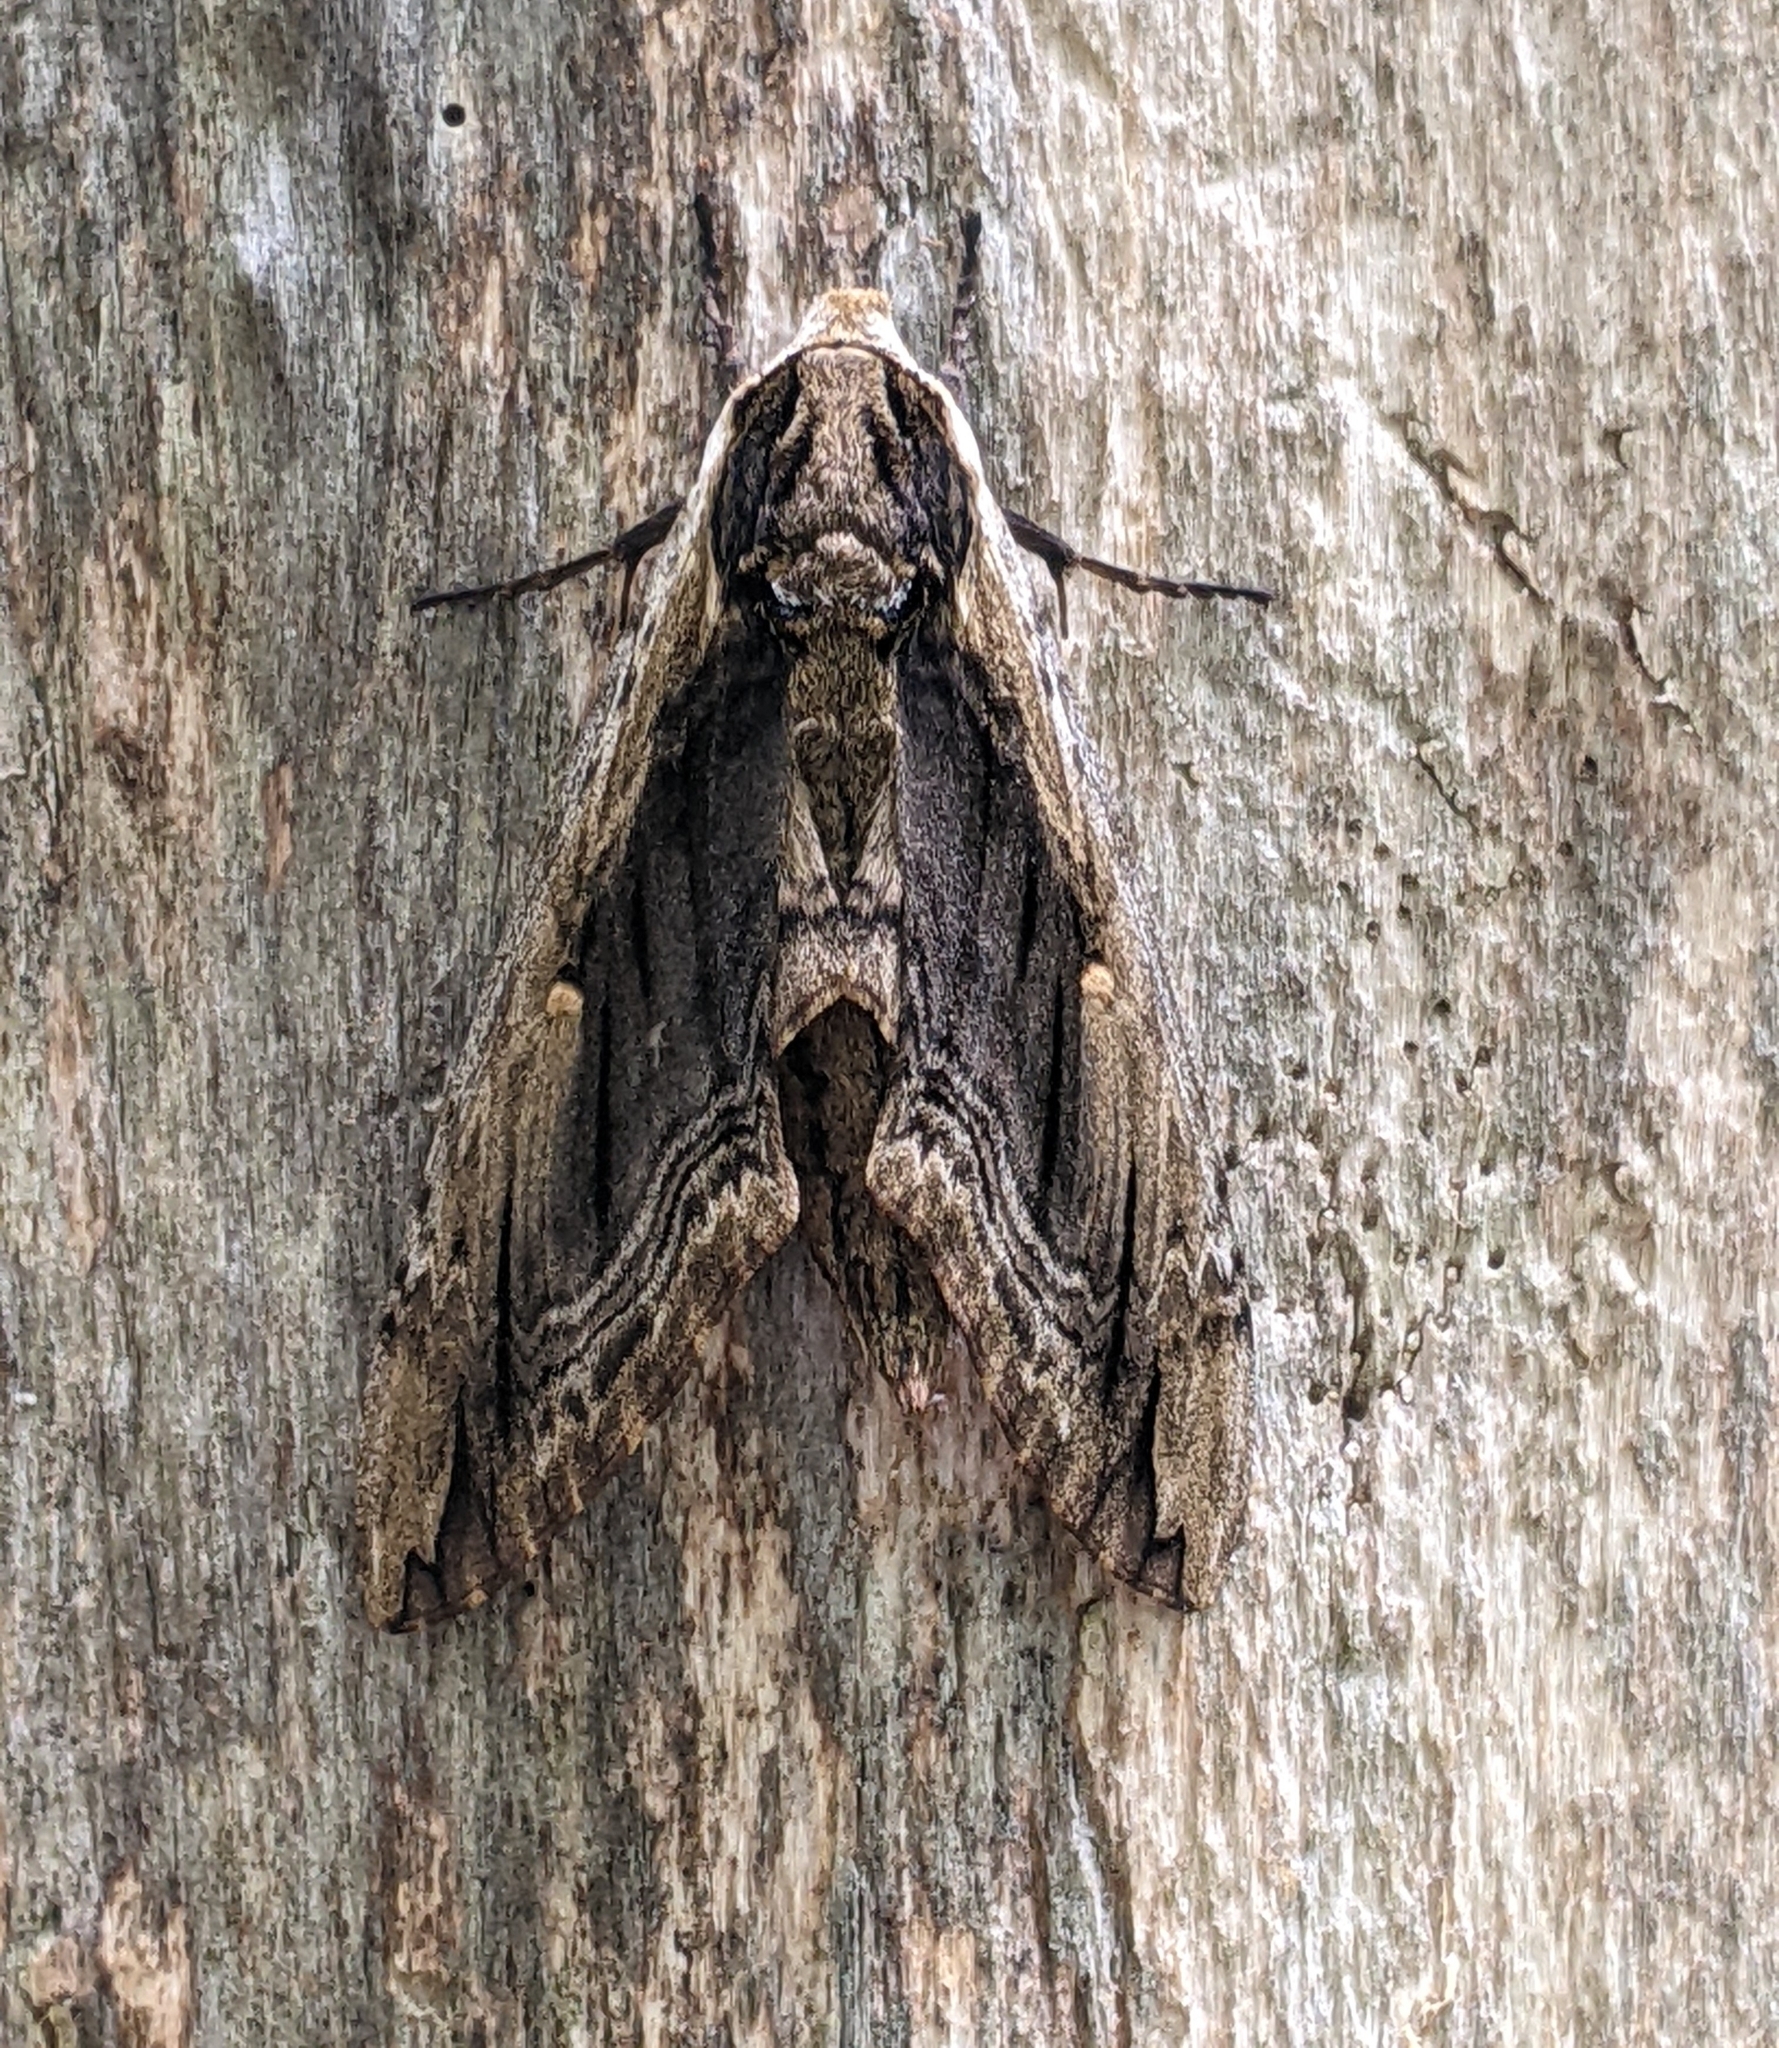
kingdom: Animalia
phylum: Arthropoda
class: Insecta
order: Lepidoptera
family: Sphingidae
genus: Ceratomia
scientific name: Ceratomia amyntor
